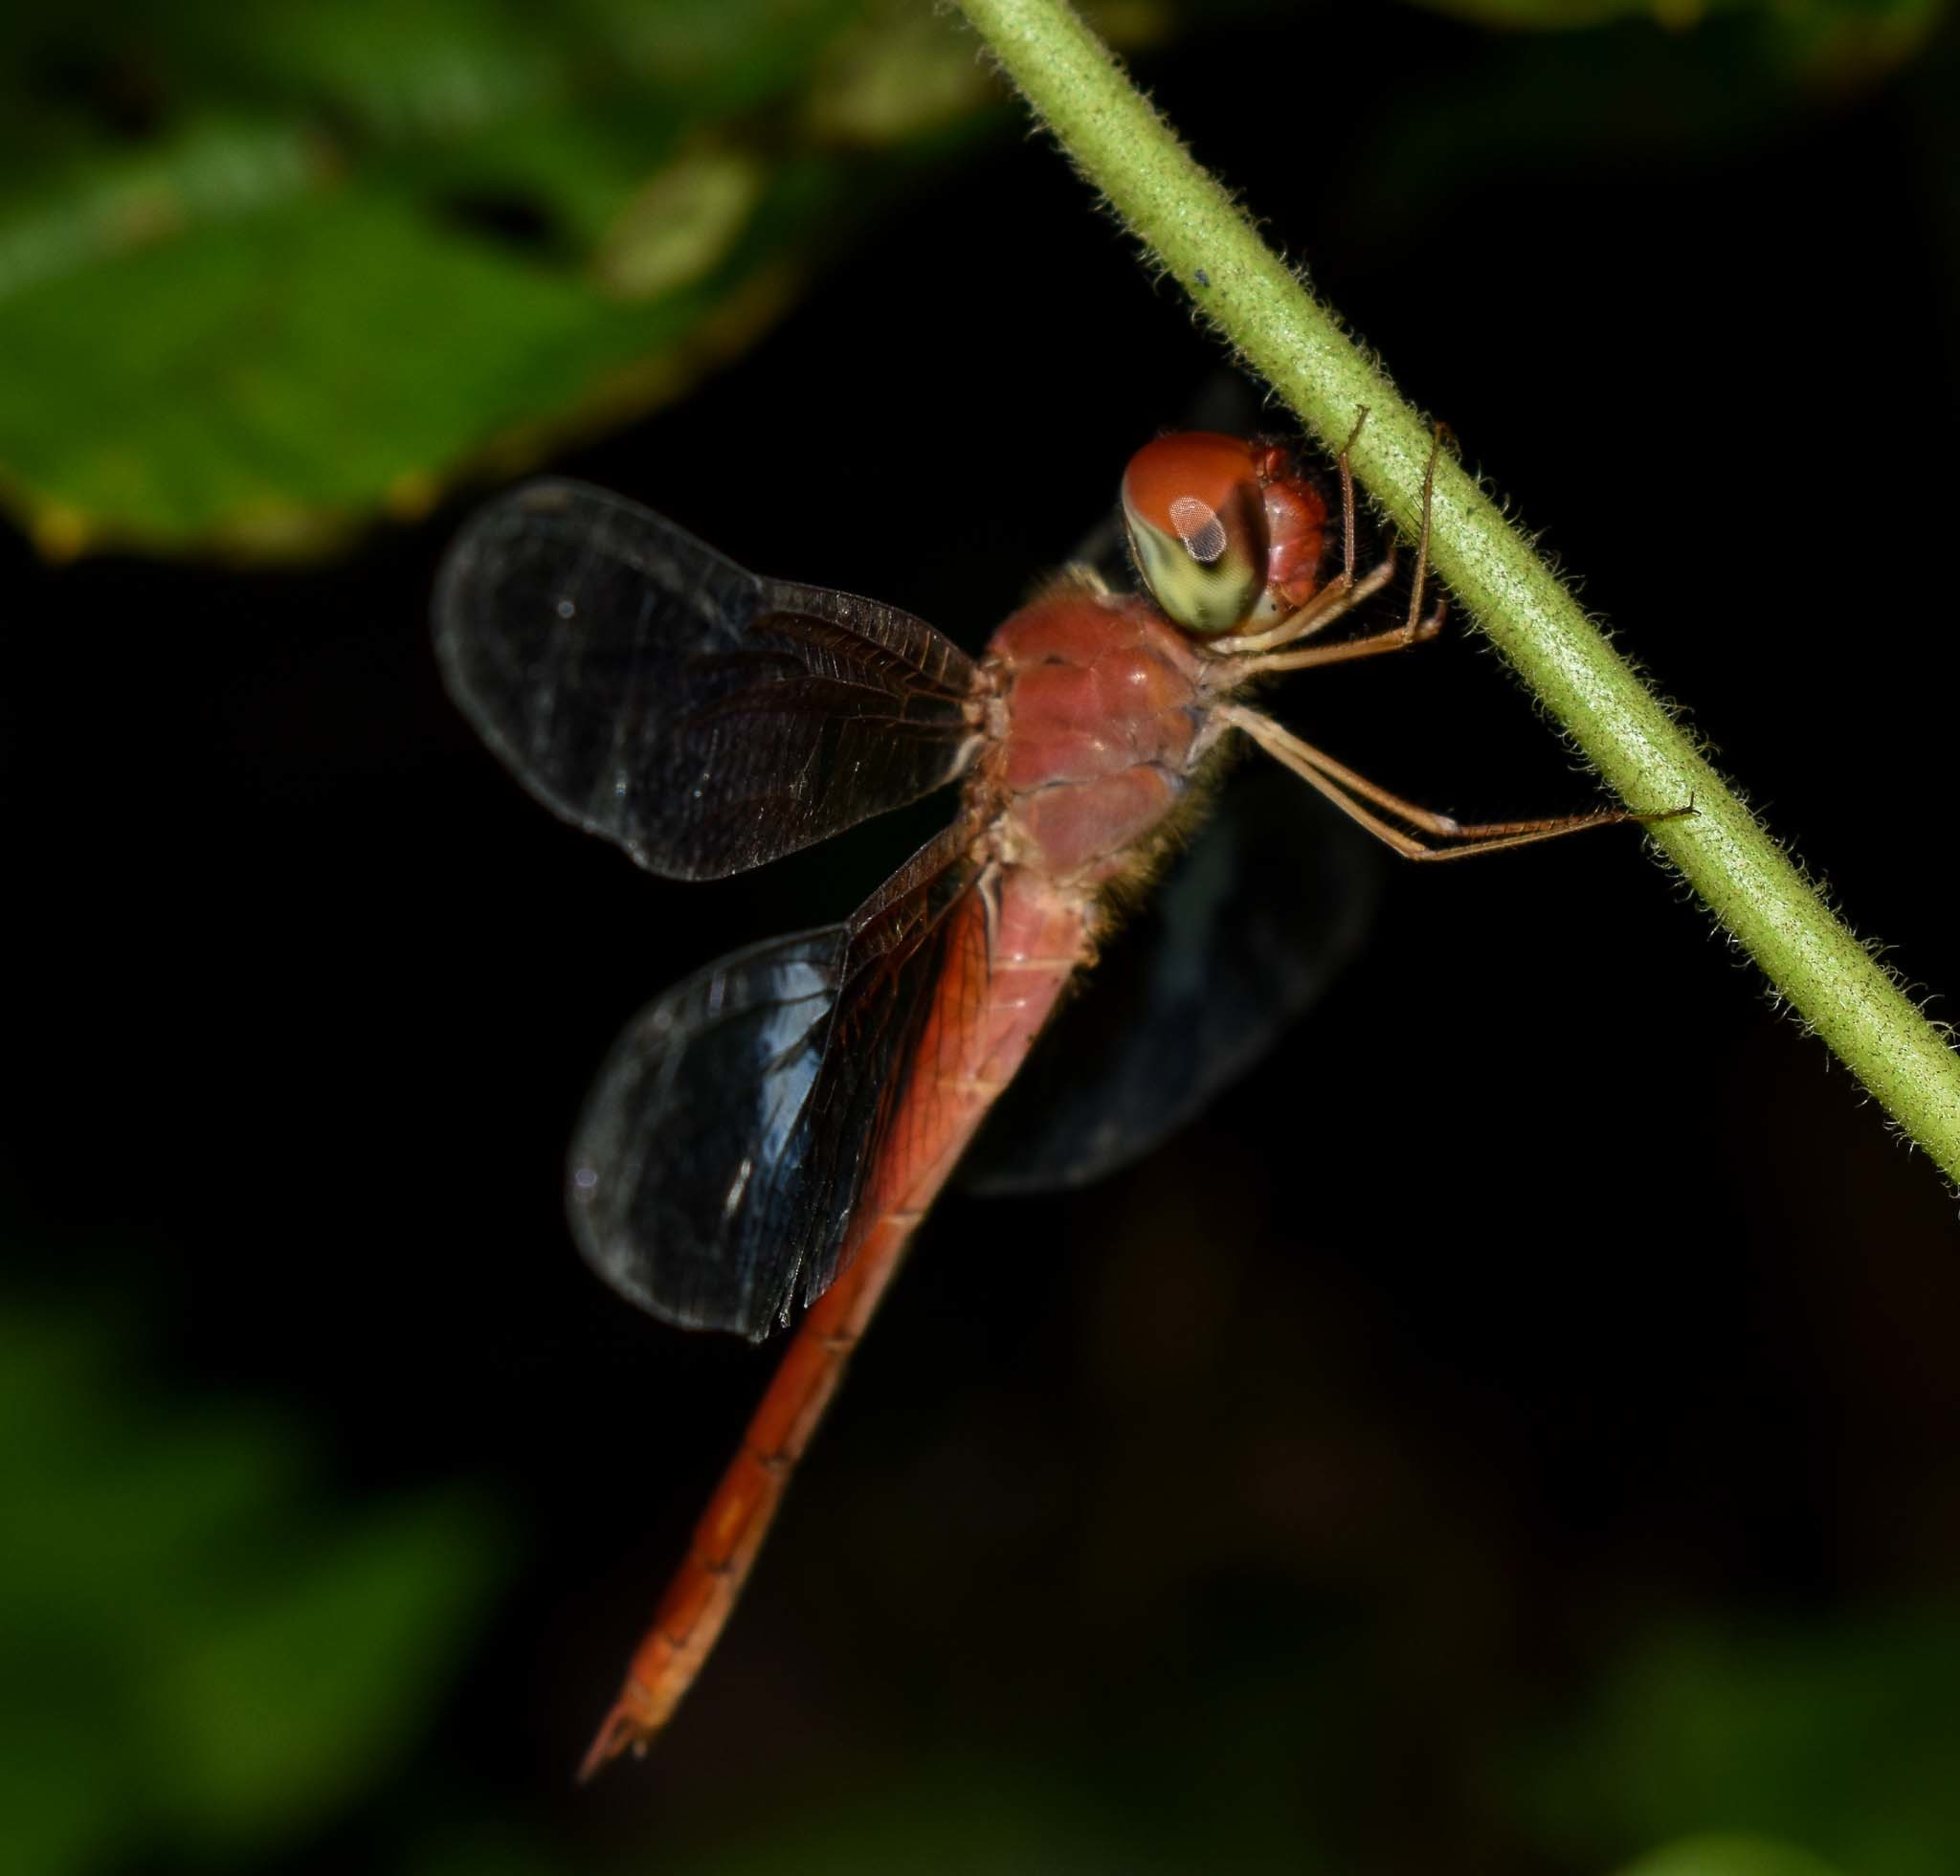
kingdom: Animalia
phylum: Arthropoda
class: Insecta
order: Odonata
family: Libellulidae
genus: Tholymis
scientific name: Tholymis tillarga
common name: Coral-tailed cloud wing
